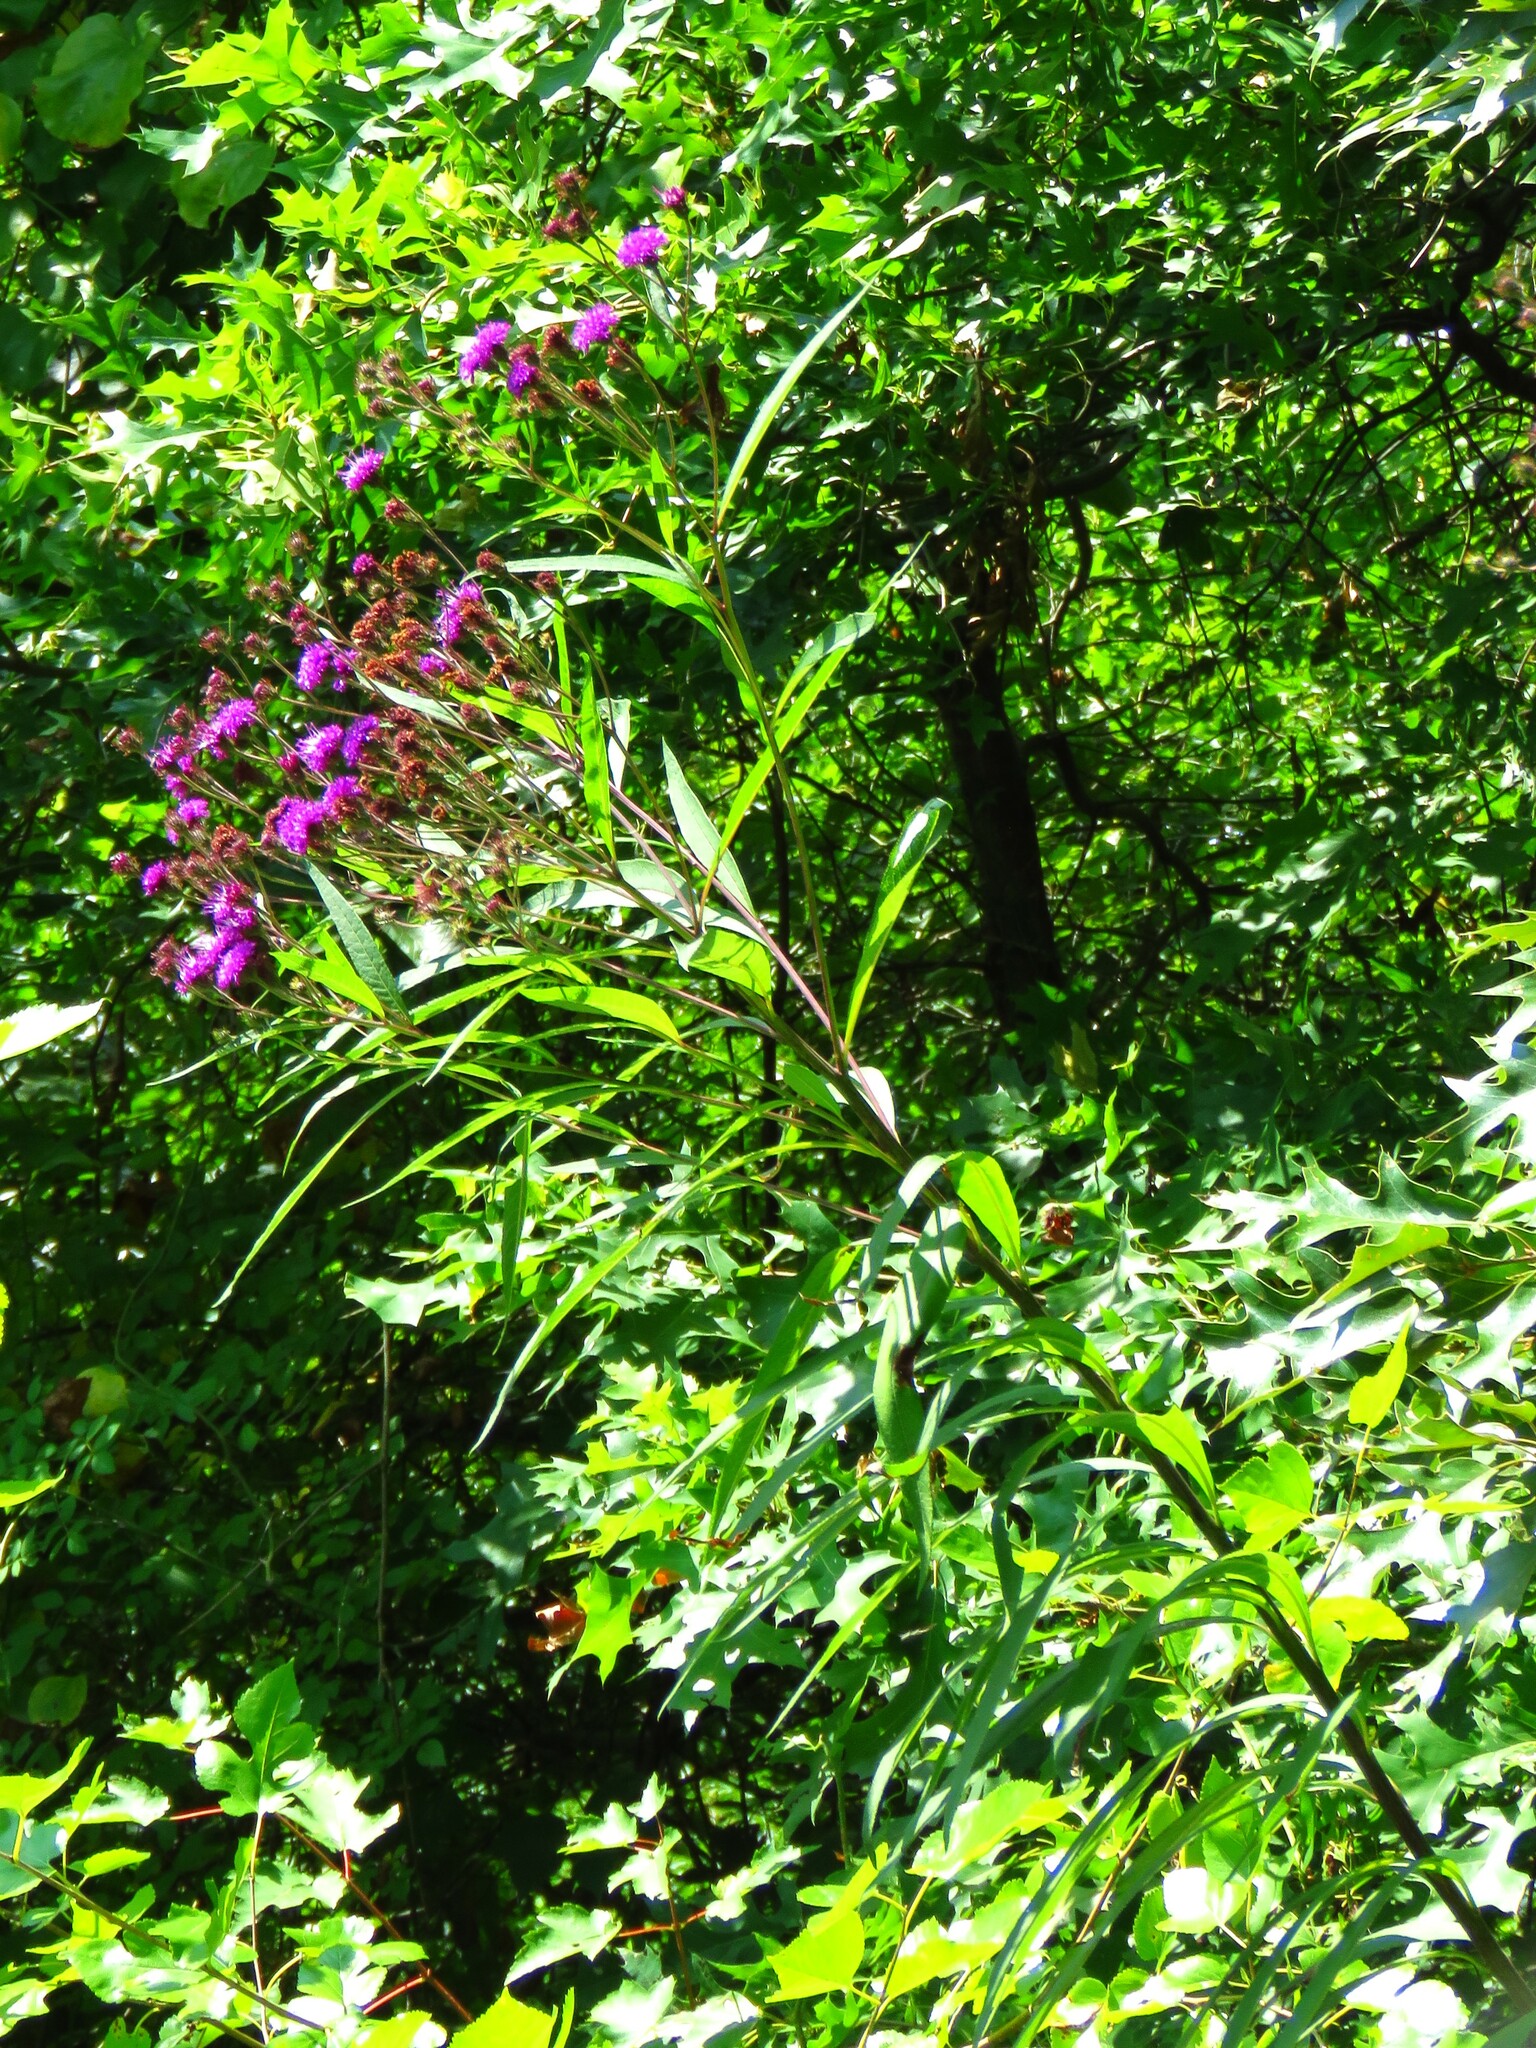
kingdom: Plantae
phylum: Tracheophyta
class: Magnoliopsida
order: Asterales
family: Asteraceae
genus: Vernonia
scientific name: Vernonia noveboracensis
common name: New york ironweed
